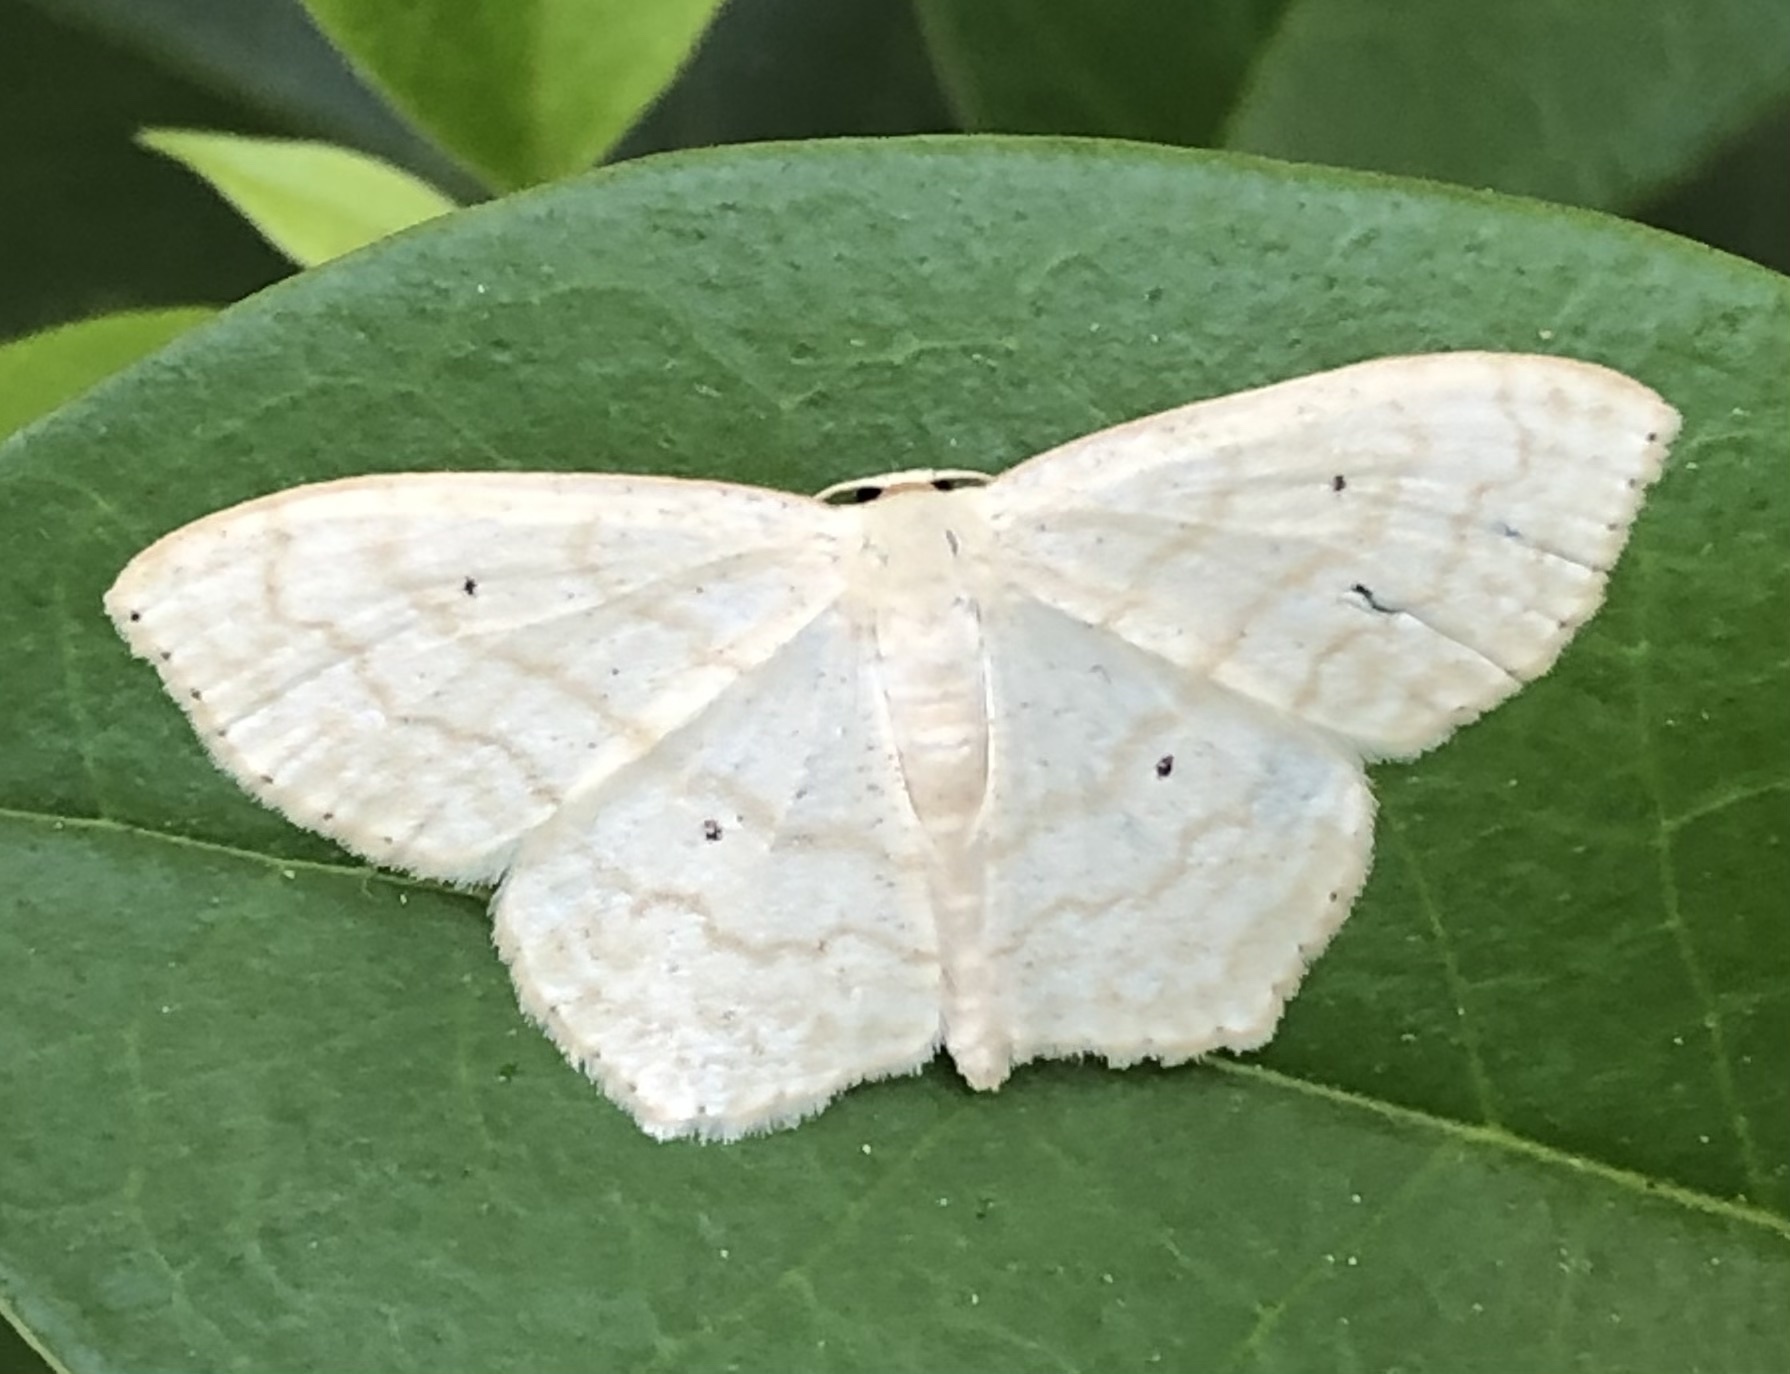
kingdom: Animalia
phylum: Arthropoda
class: Insecta
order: Lepidoptera
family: Geometridae
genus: Scopula
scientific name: Scopula limboundata
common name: Large lace border
